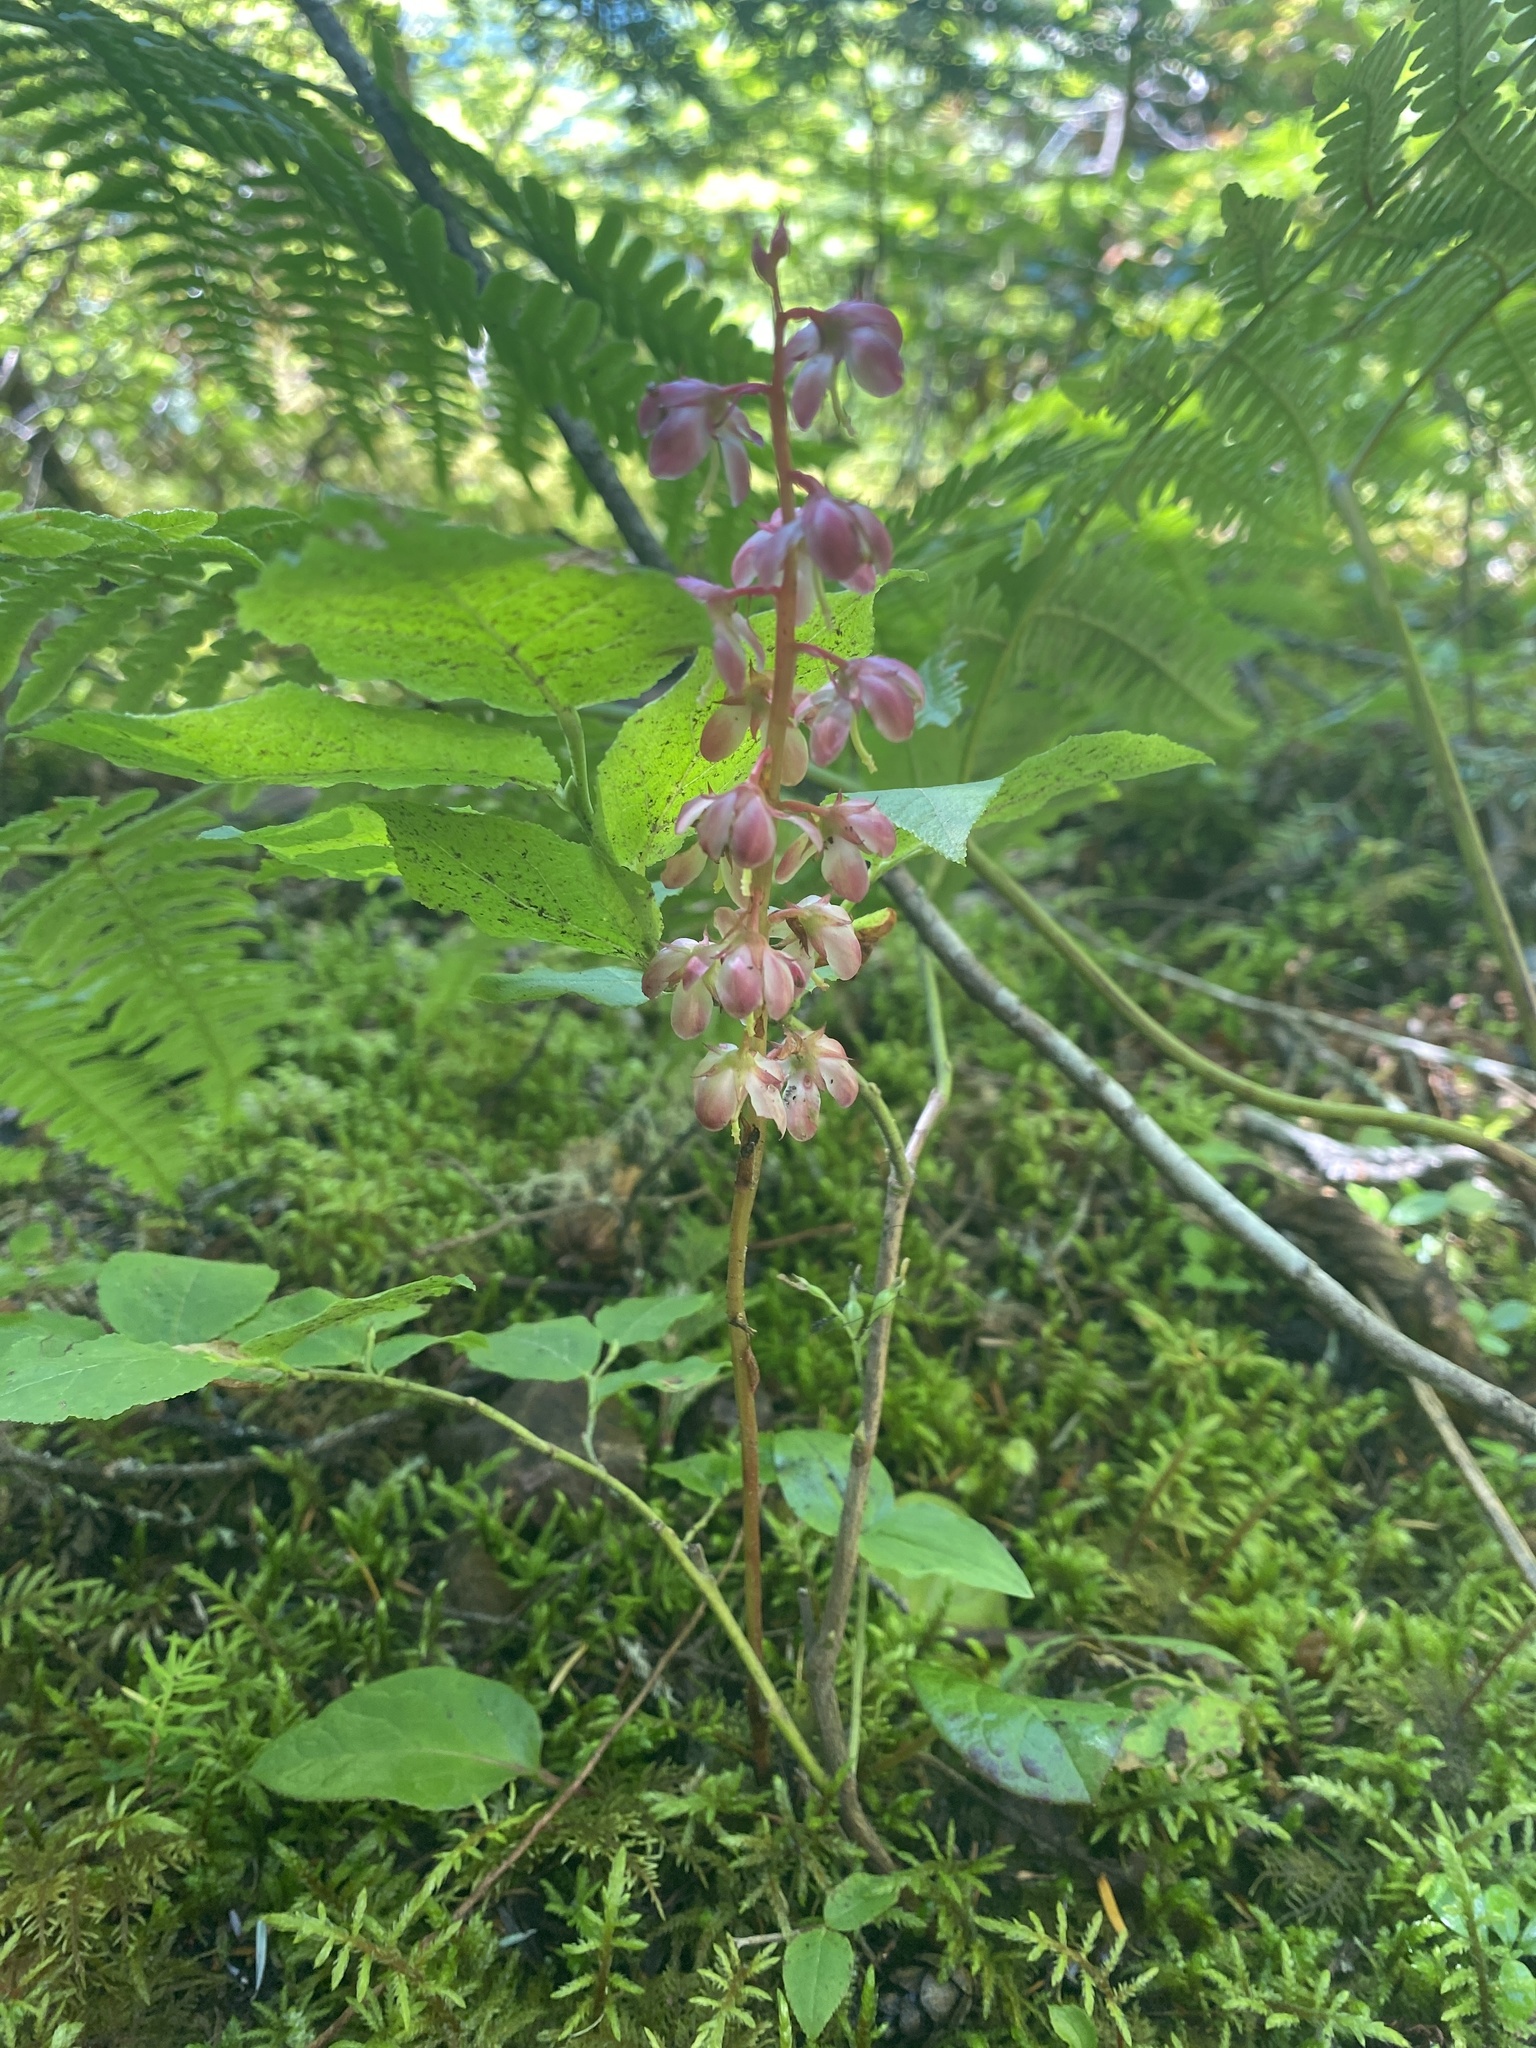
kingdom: Plantae
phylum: Tracheophyta
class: Magnoliopsida
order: Ericales
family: Ericaceae
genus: Pyrola
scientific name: Pyrola asarifolia
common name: Bog wintergreen
